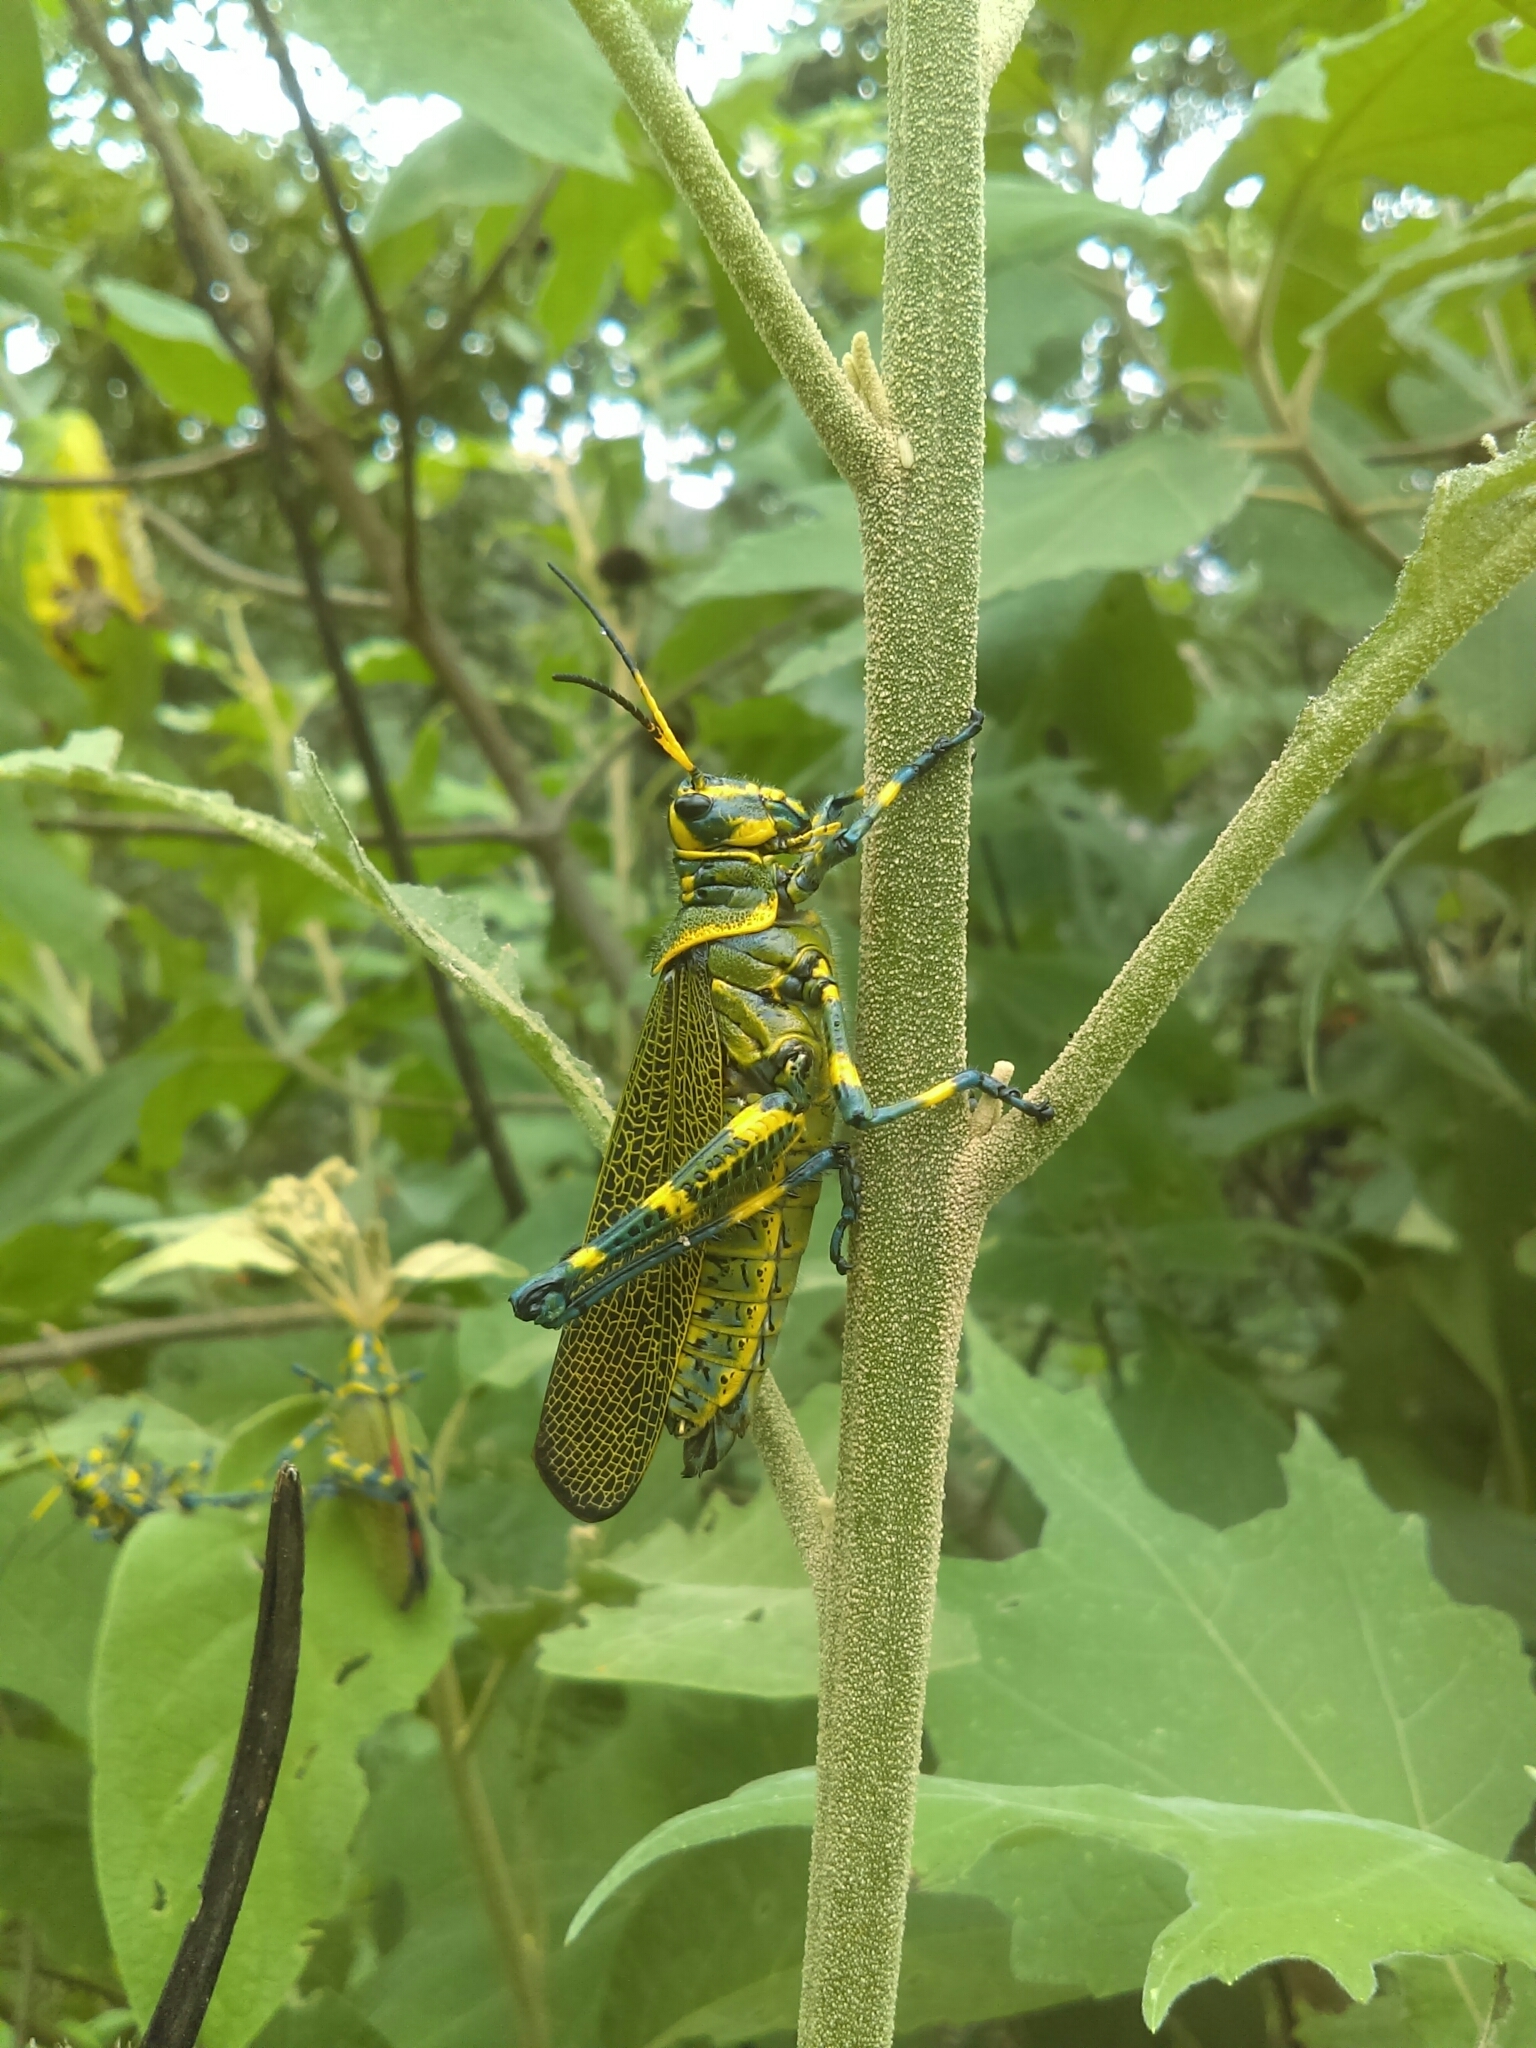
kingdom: Animalia
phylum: Arthropoda
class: Insecta
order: Orthoptera
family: Romaleidae
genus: Chromacris
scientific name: Chromacris colorata
